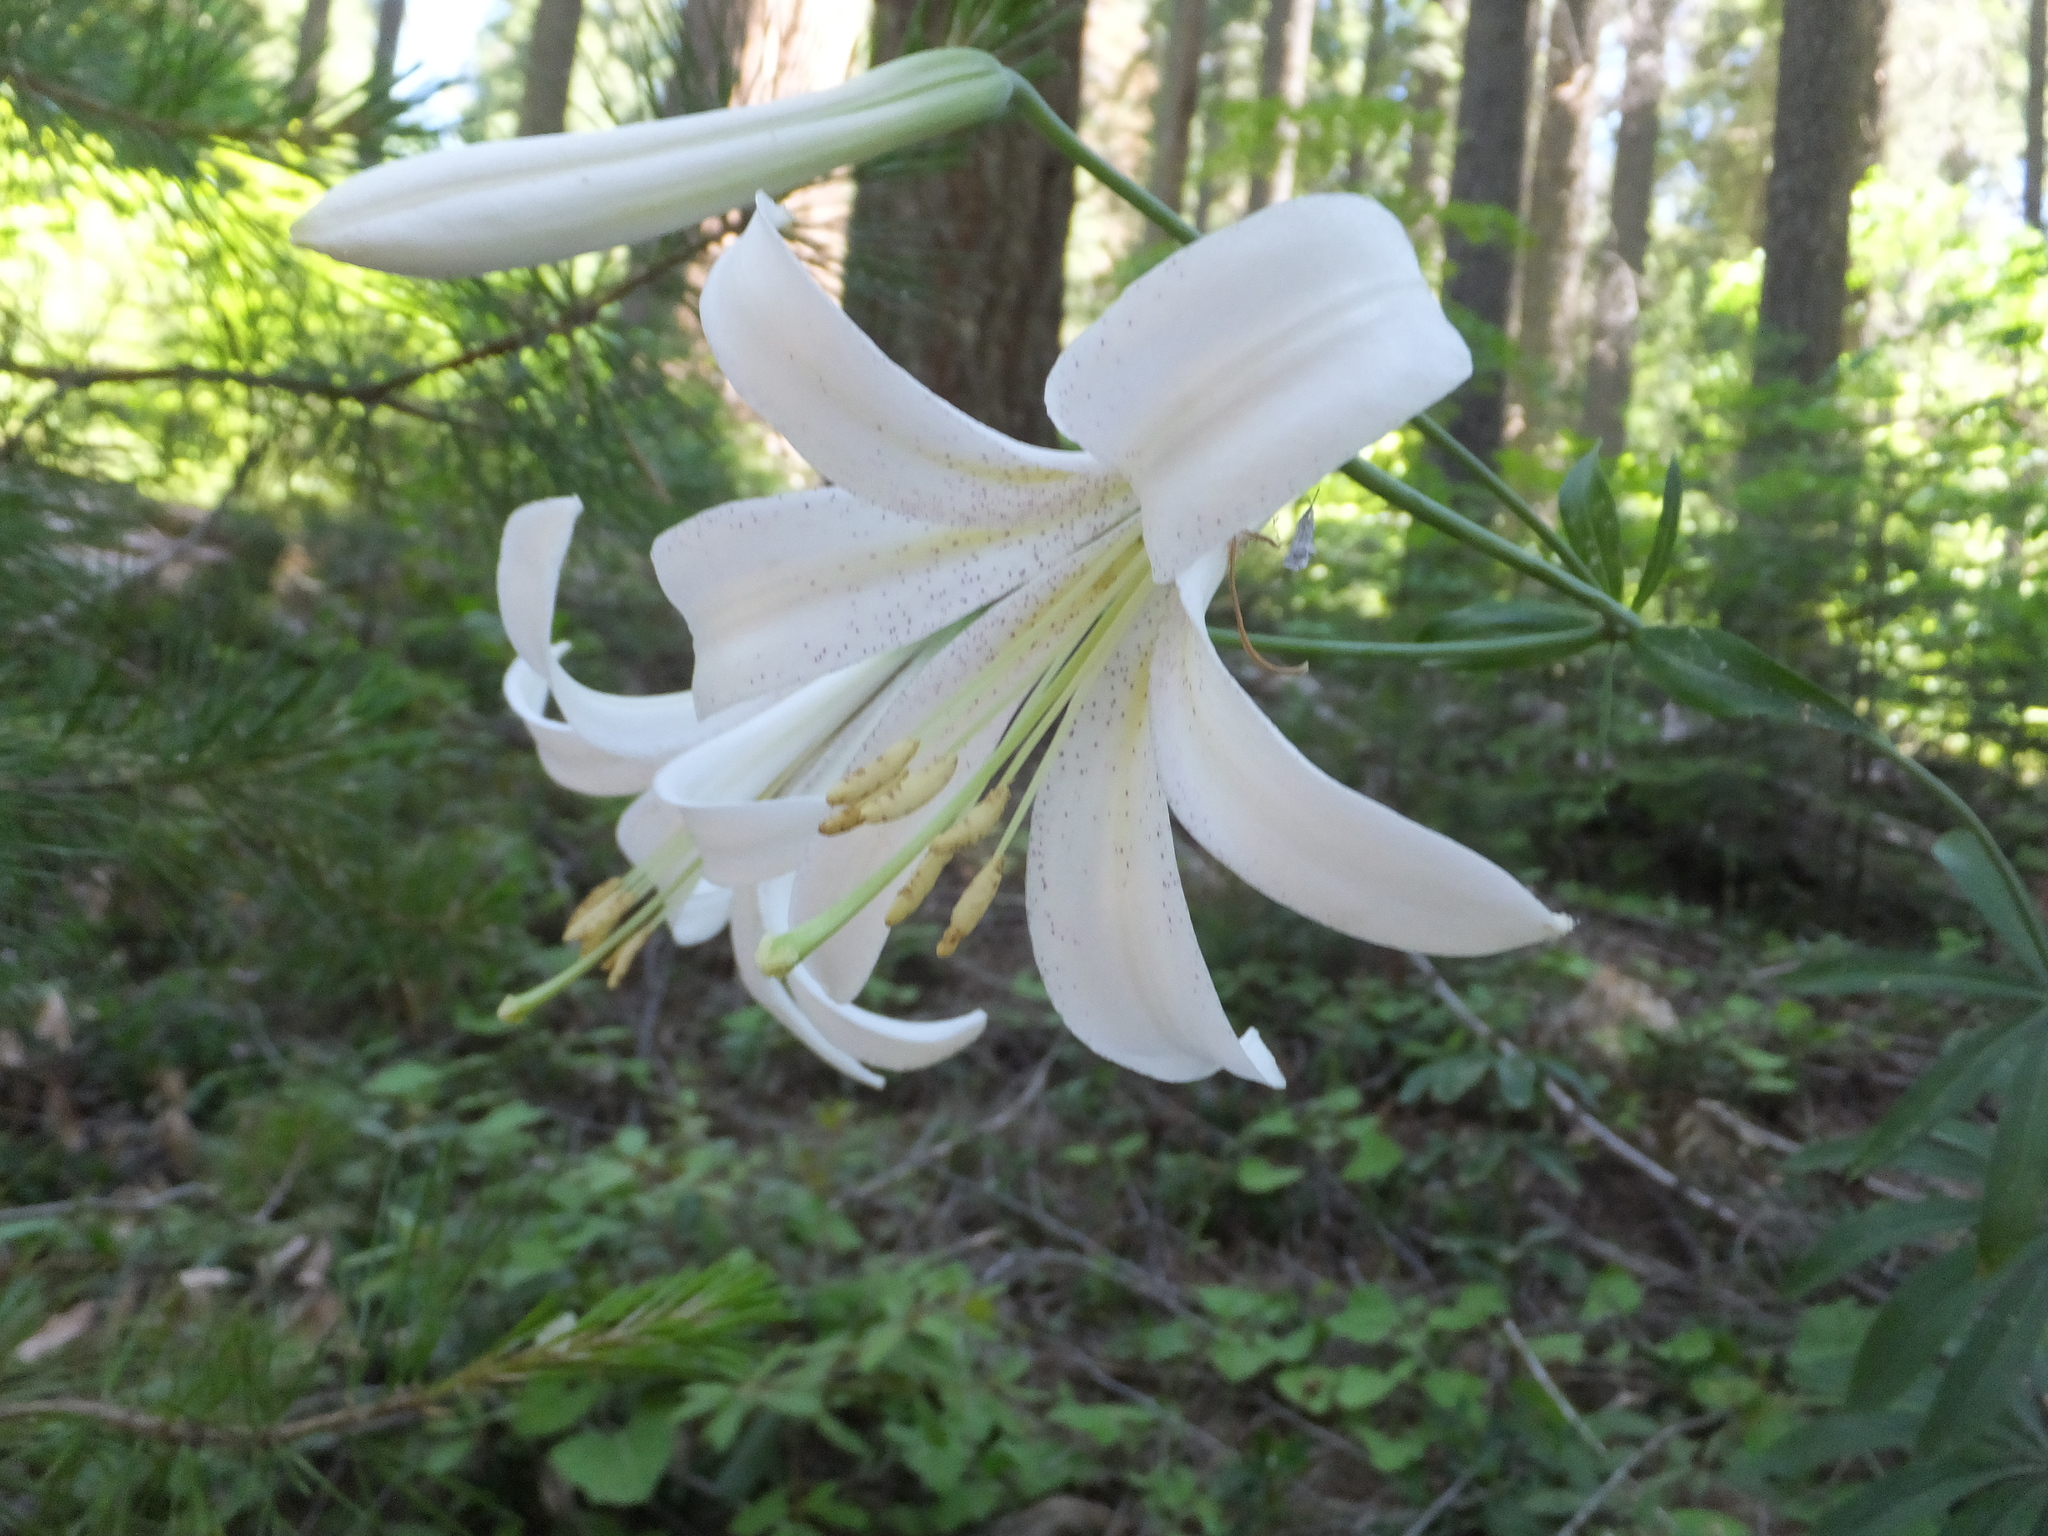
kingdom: Plantae
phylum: Tracheophyta
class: Liliopsida
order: Liliales
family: Liliaceae
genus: Lilium
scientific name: Lilium washingtonianum
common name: Washington lily
